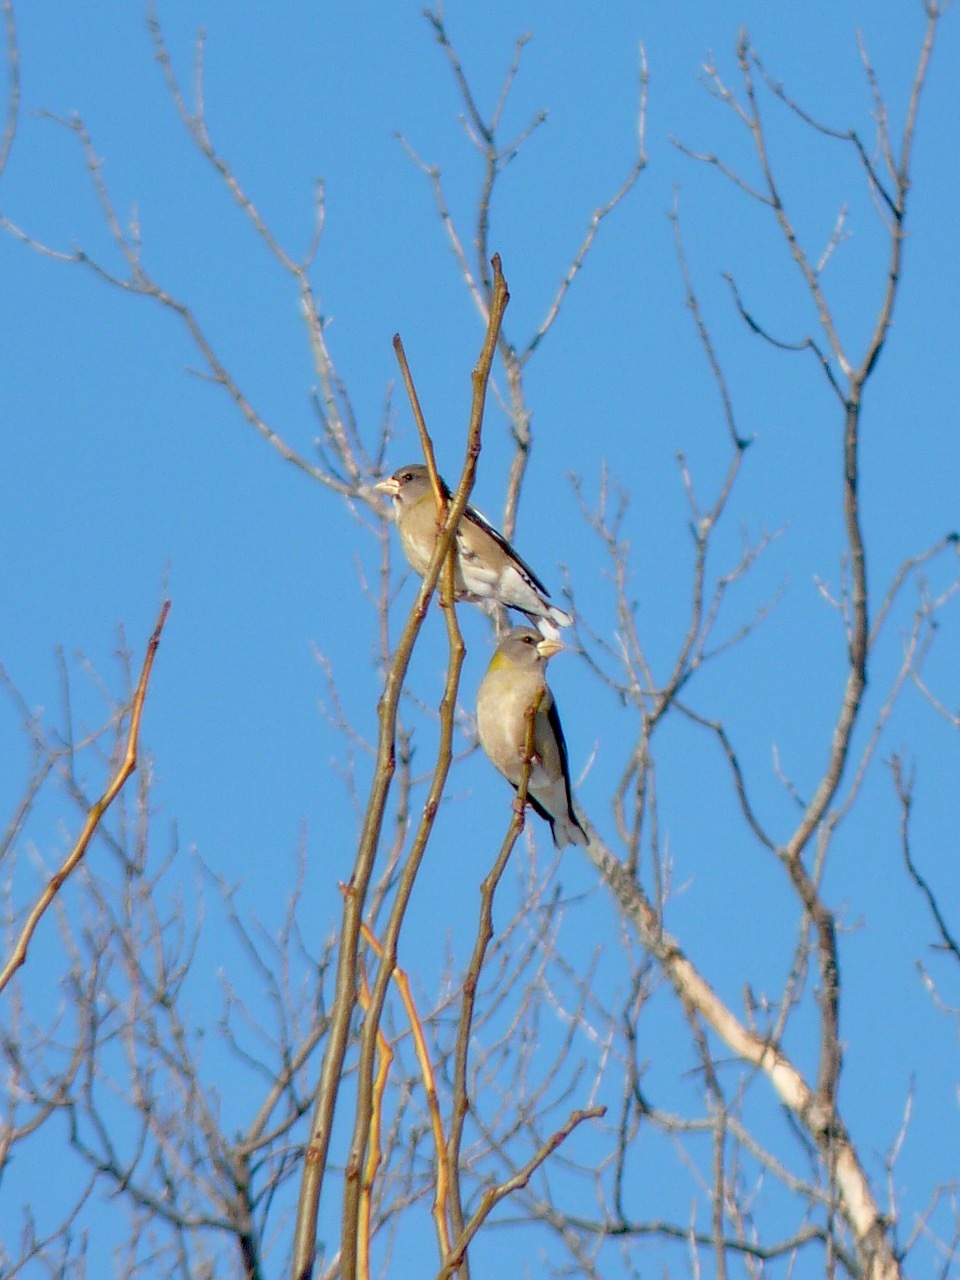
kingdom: Animalia
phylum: Chordata
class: Aves
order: Passeriformes
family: Fringillidae
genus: Hesperiphona
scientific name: Hesperiphona vespertina
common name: Evening grosbeak
